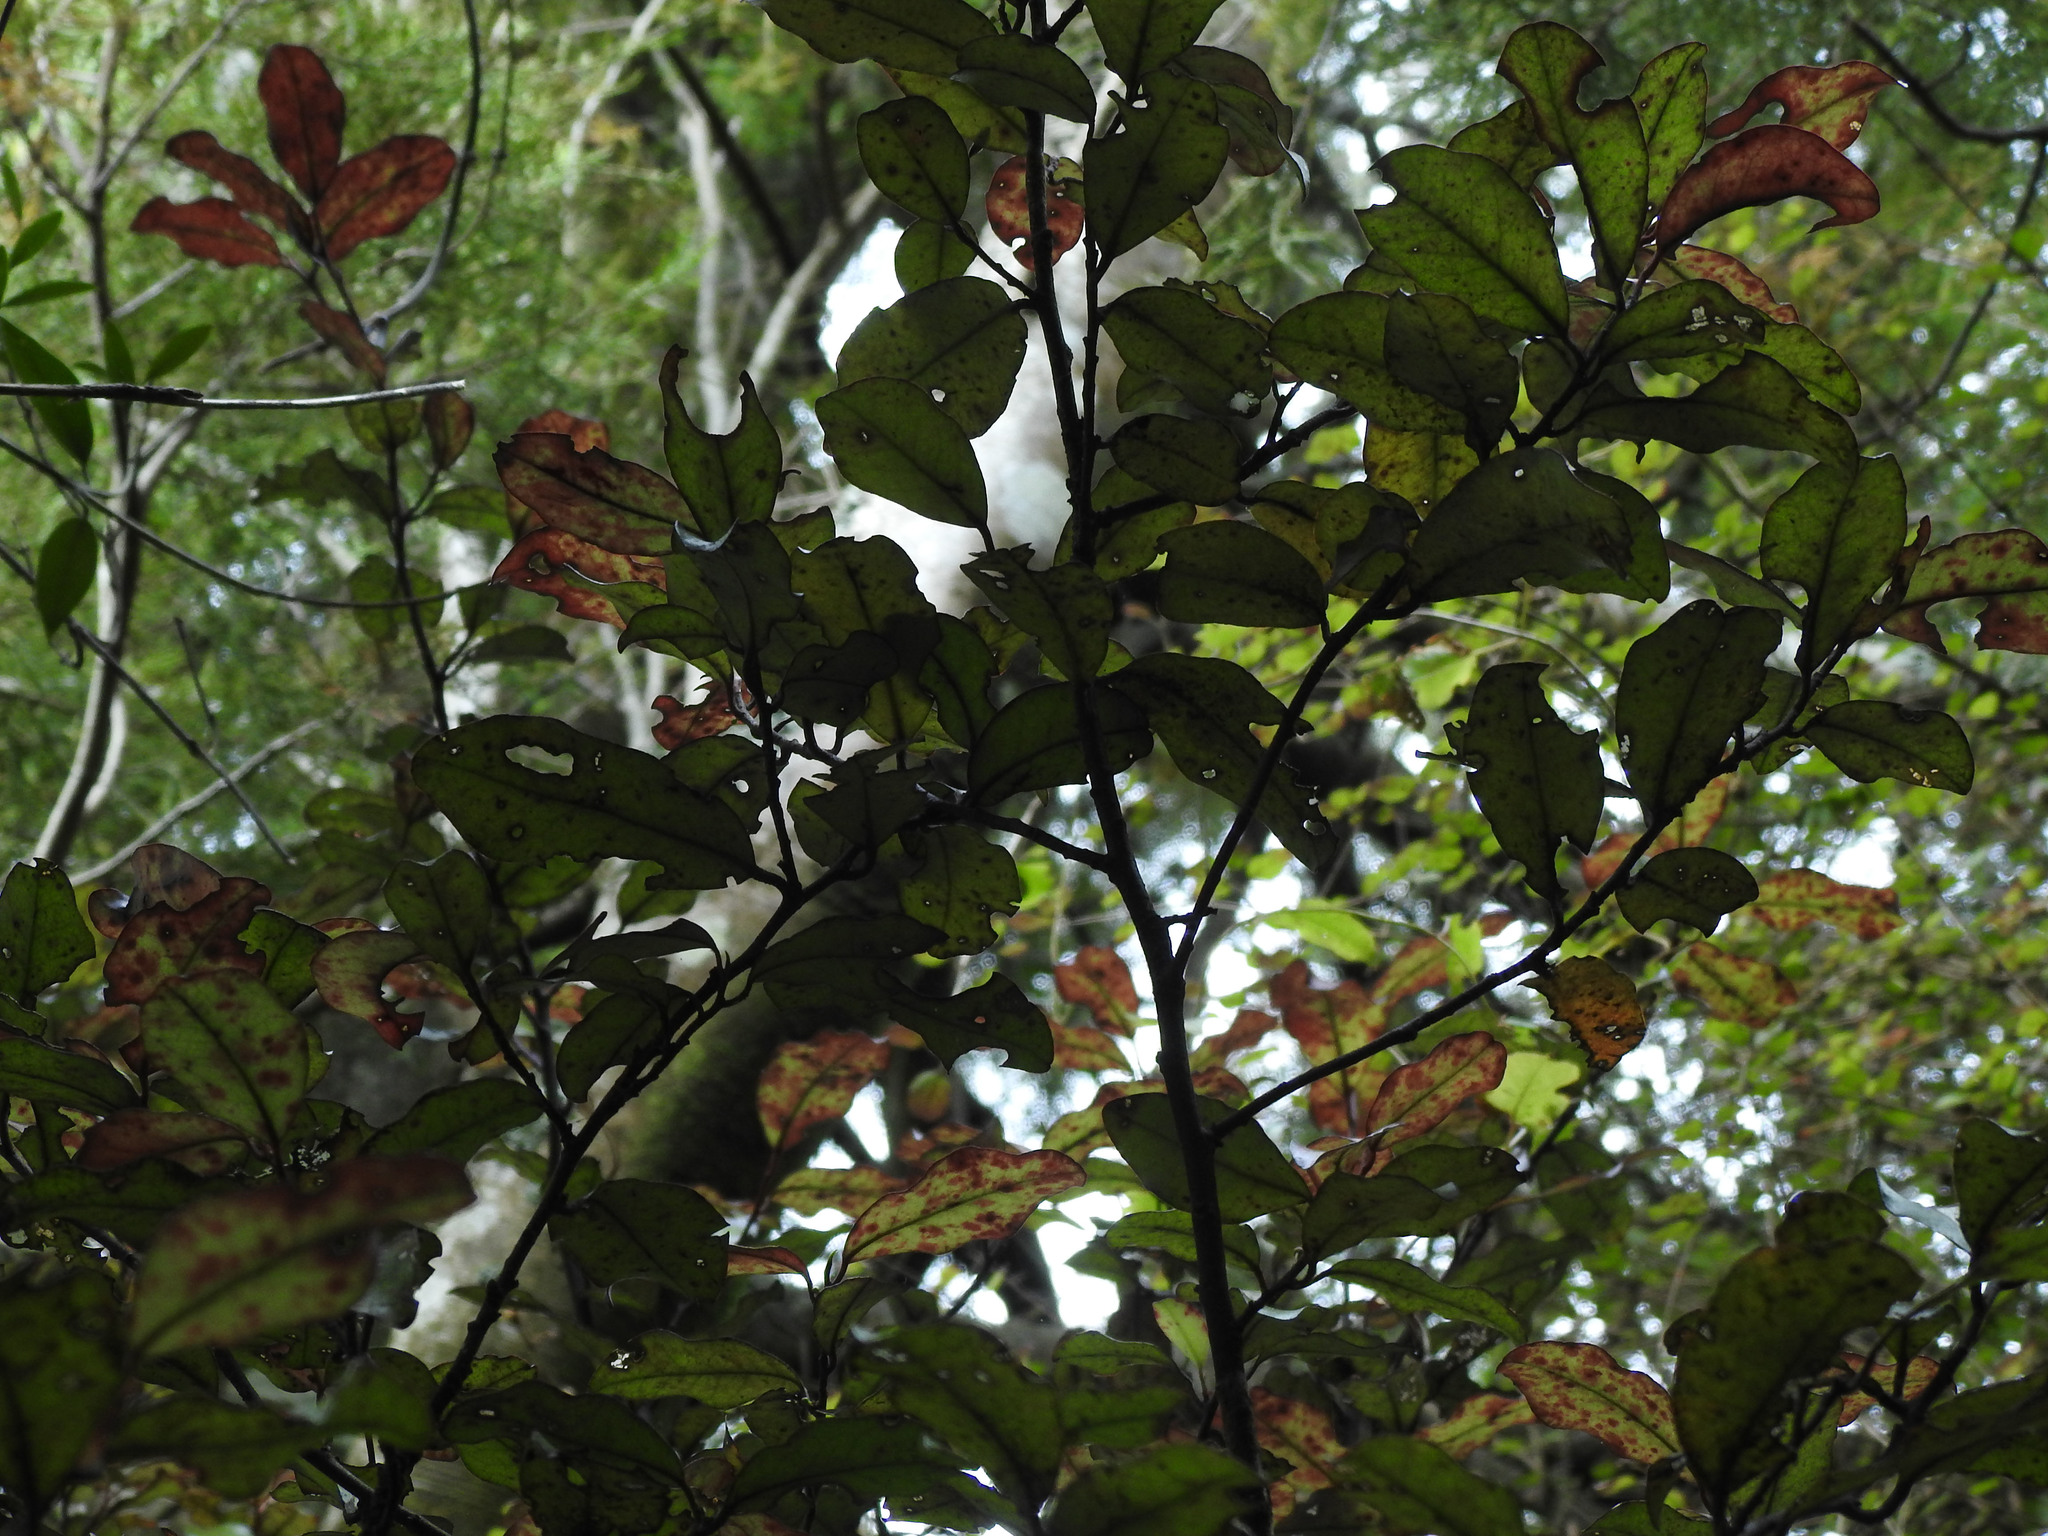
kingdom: Plantae
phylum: Tracheophyta
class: Magnoliopsida
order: Canellales
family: Winteraceae
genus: Pseudowintera
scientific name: Pseudowintera colorata
